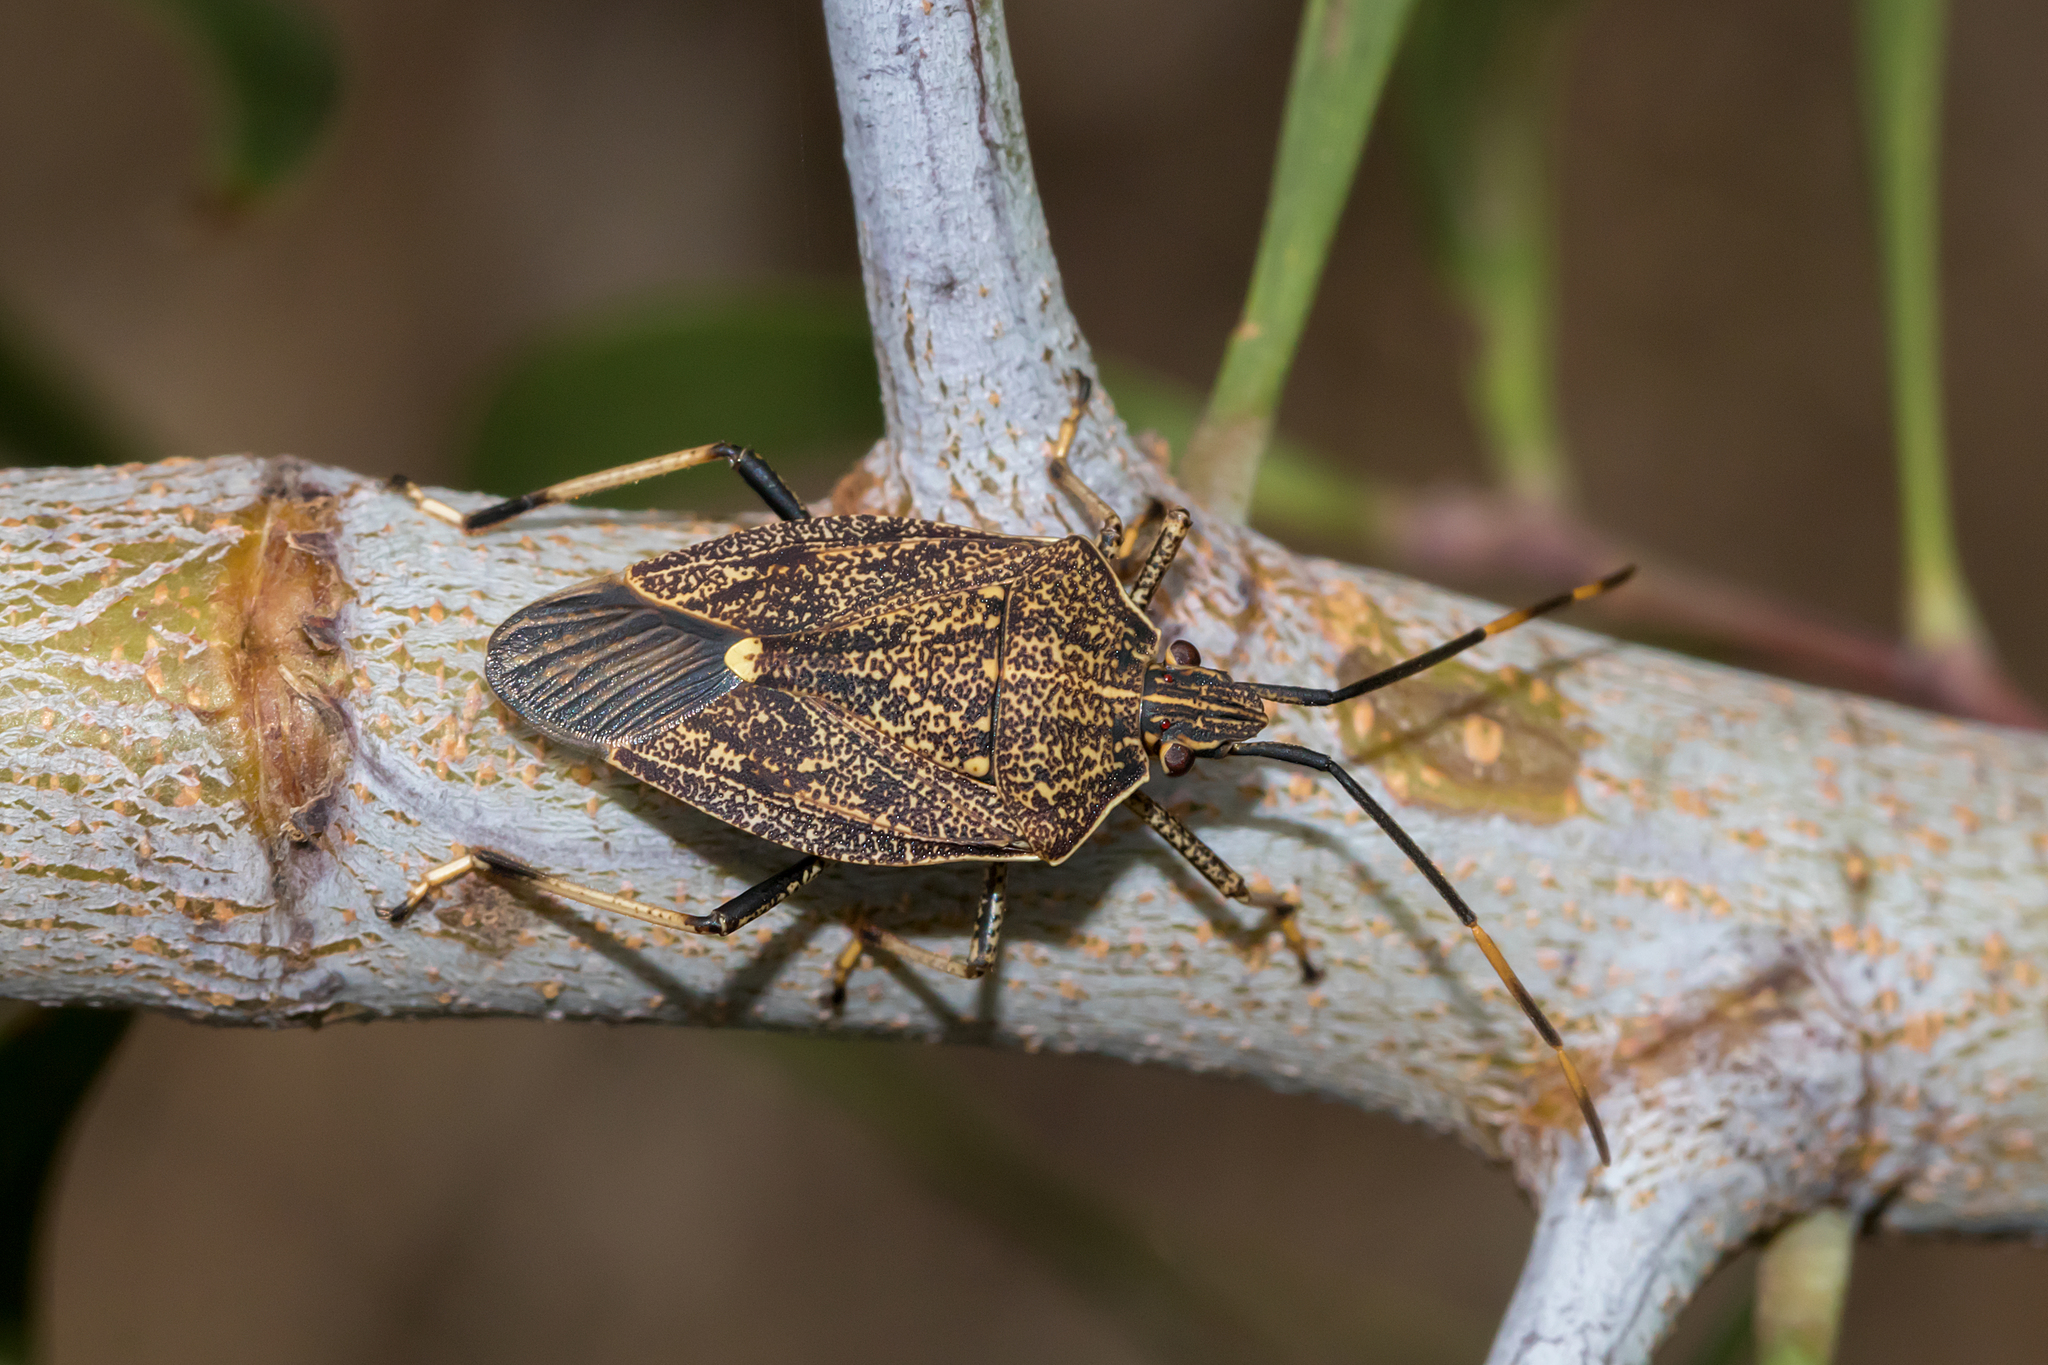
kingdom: Animalia
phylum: Arthropoda
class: Insecta
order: Hemiptera
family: Pentatomidae
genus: Poecilometis
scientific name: Poecilometis
